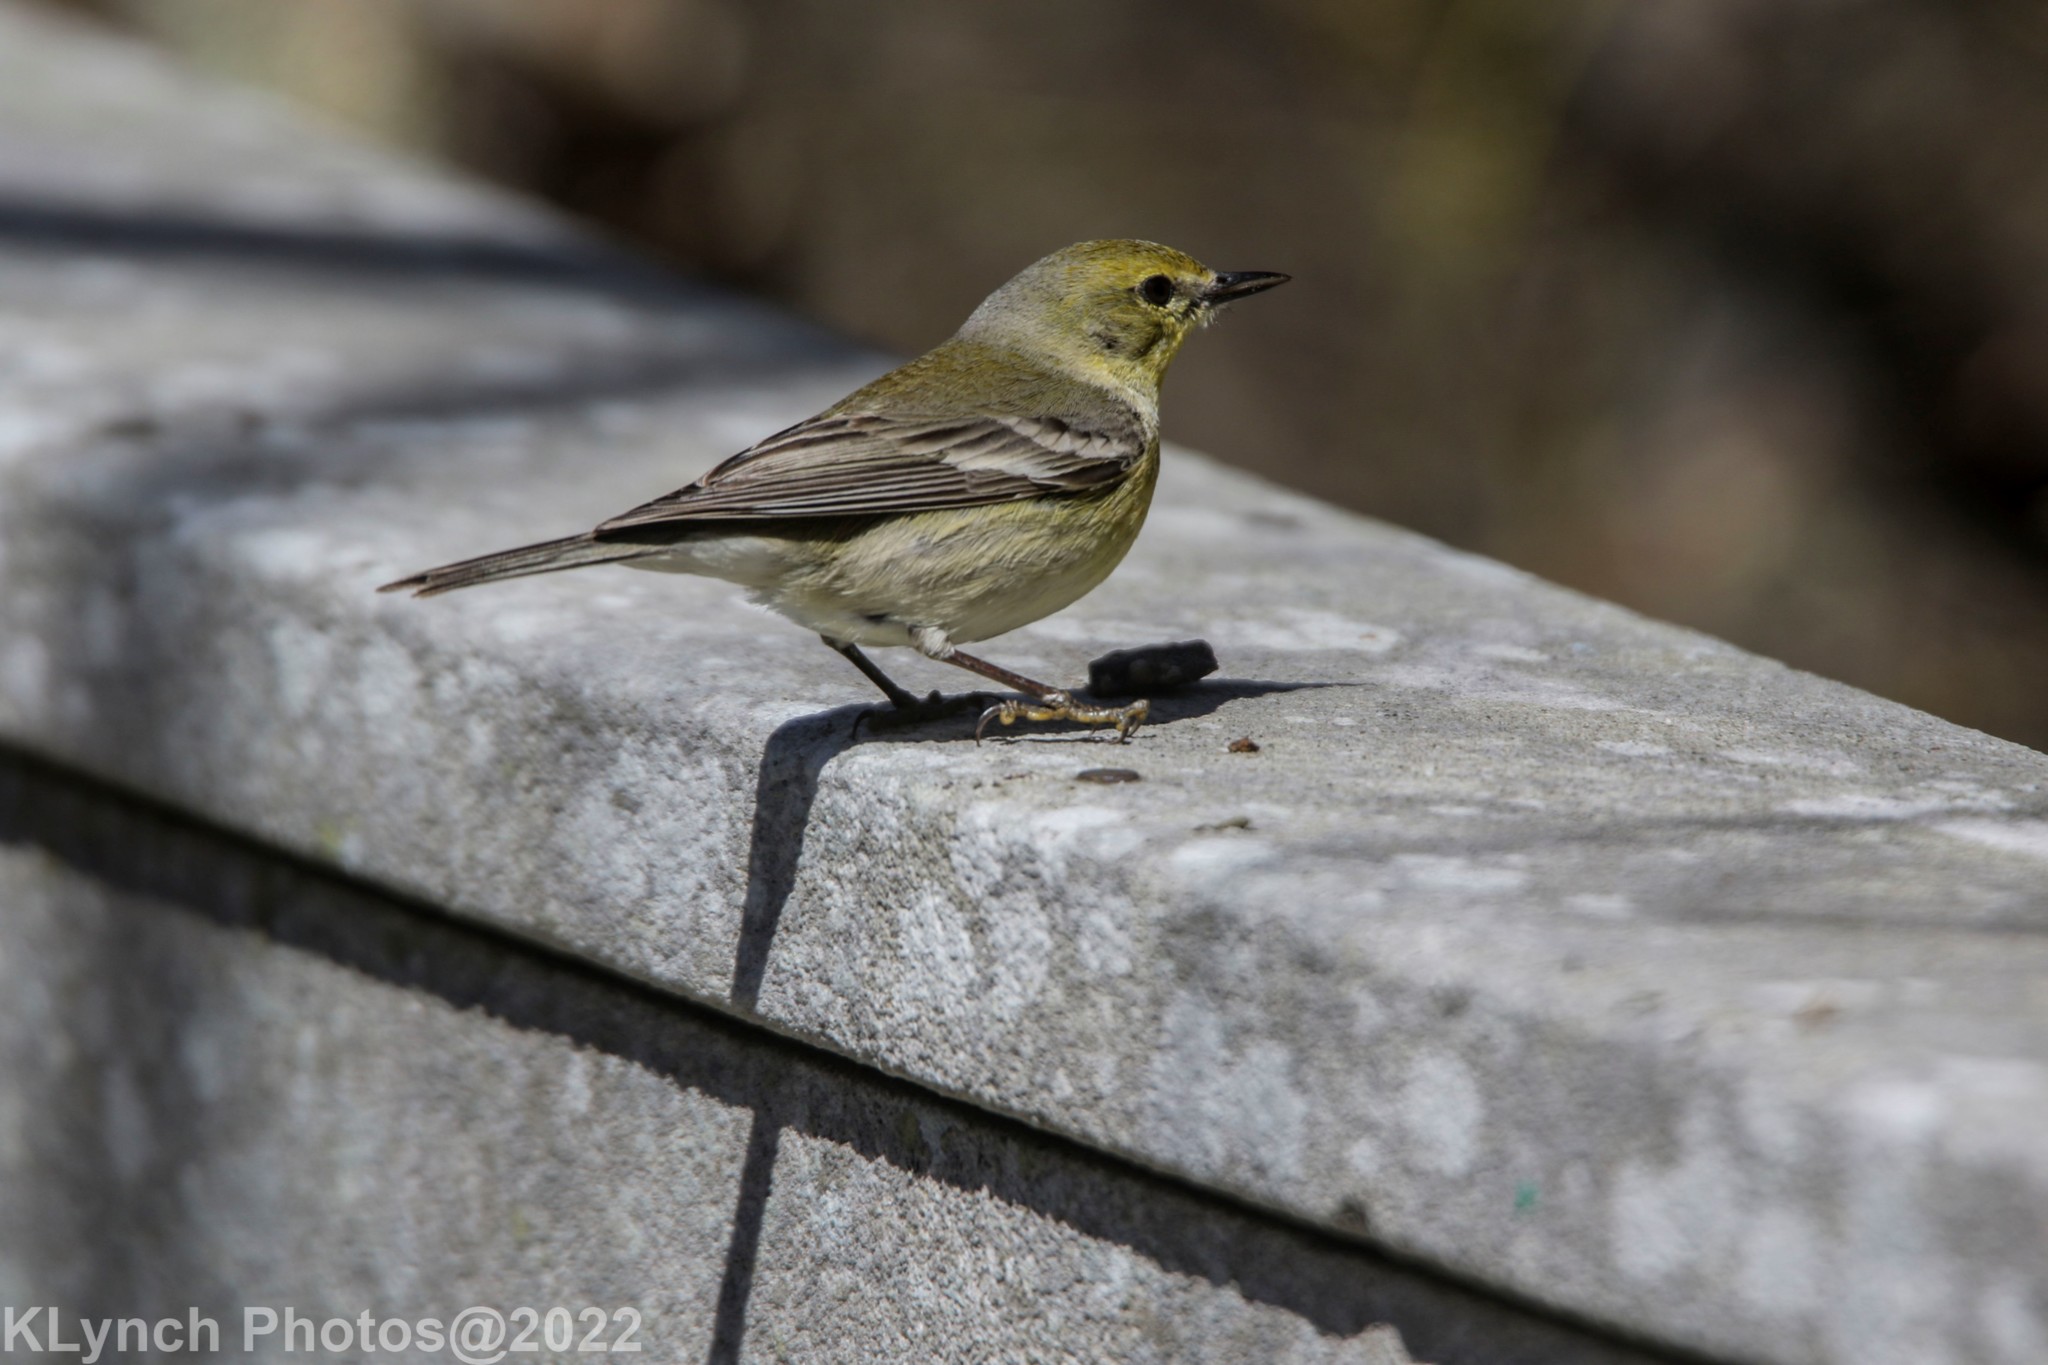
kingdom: Animalia
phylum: Chordata
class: Aves
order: Passeriformes
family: Parulidae
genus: Setophaga
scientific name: Setophaga pinus
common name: Pine warbler
